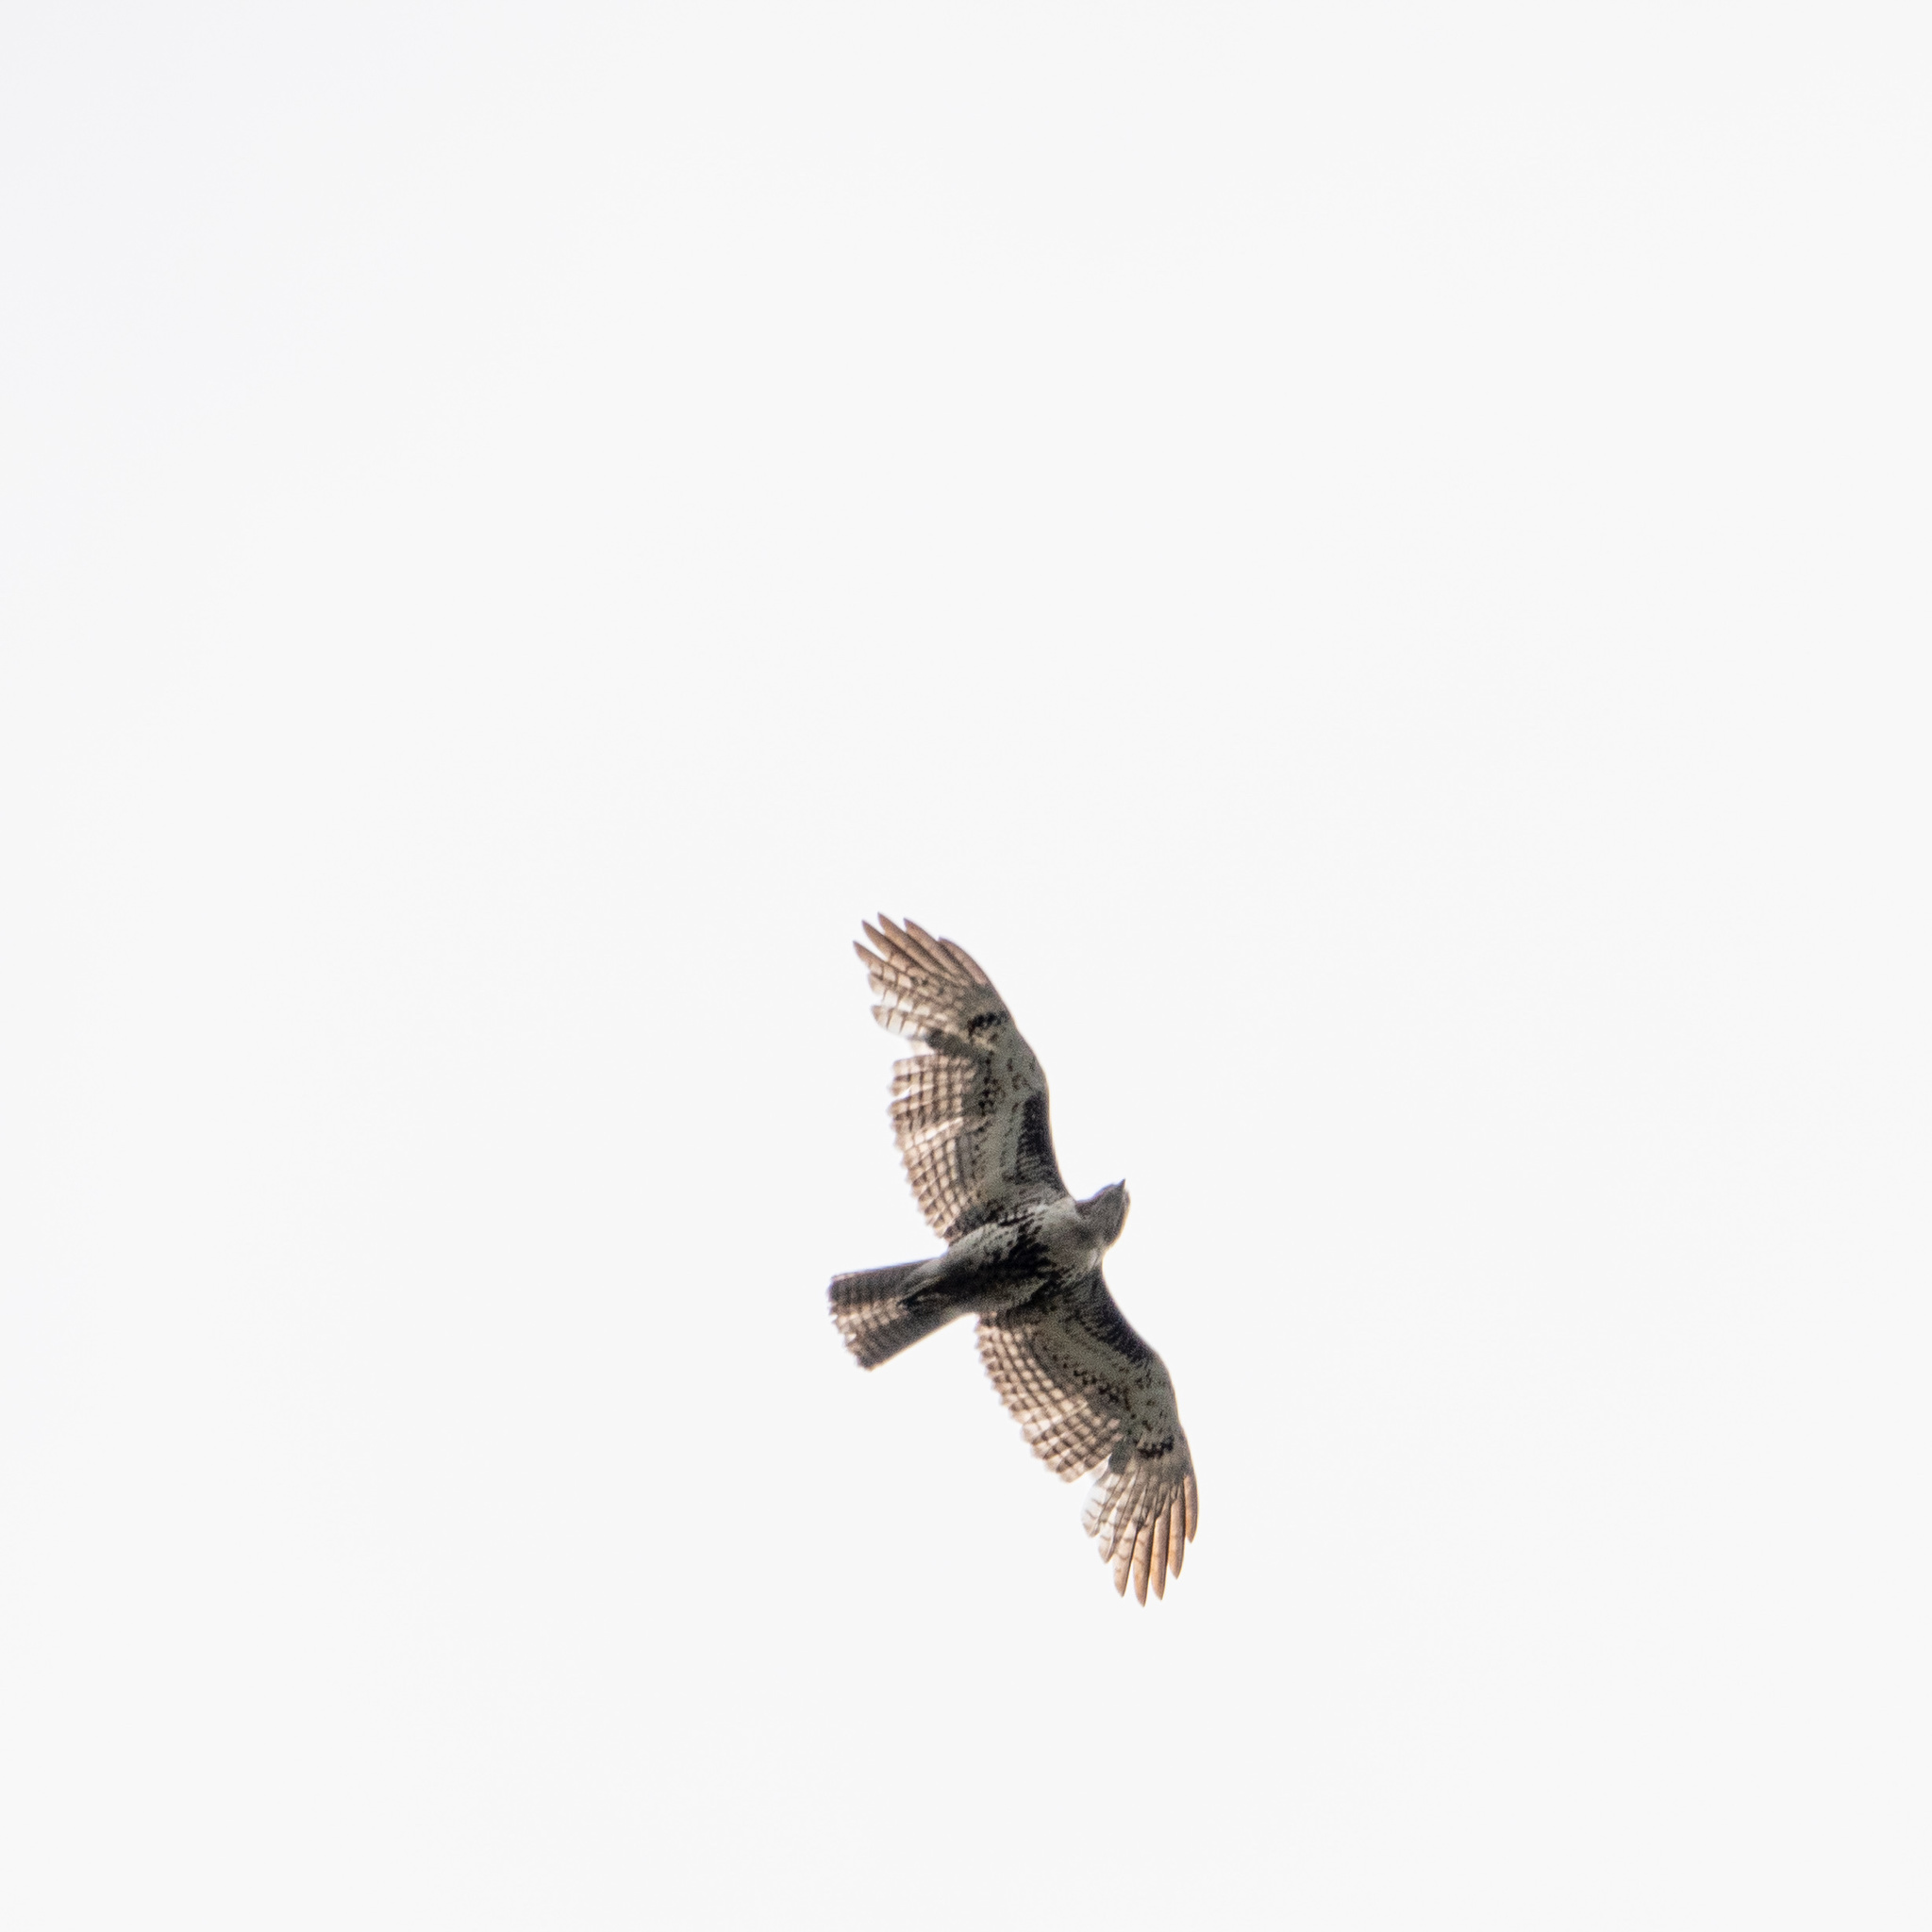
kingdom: Animalia
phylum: Chordata
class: Aves
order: Accipitriformes
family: Accipitridae
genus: Buteo
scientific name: Buteo jamaicensis
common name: Red-tailed hawk
